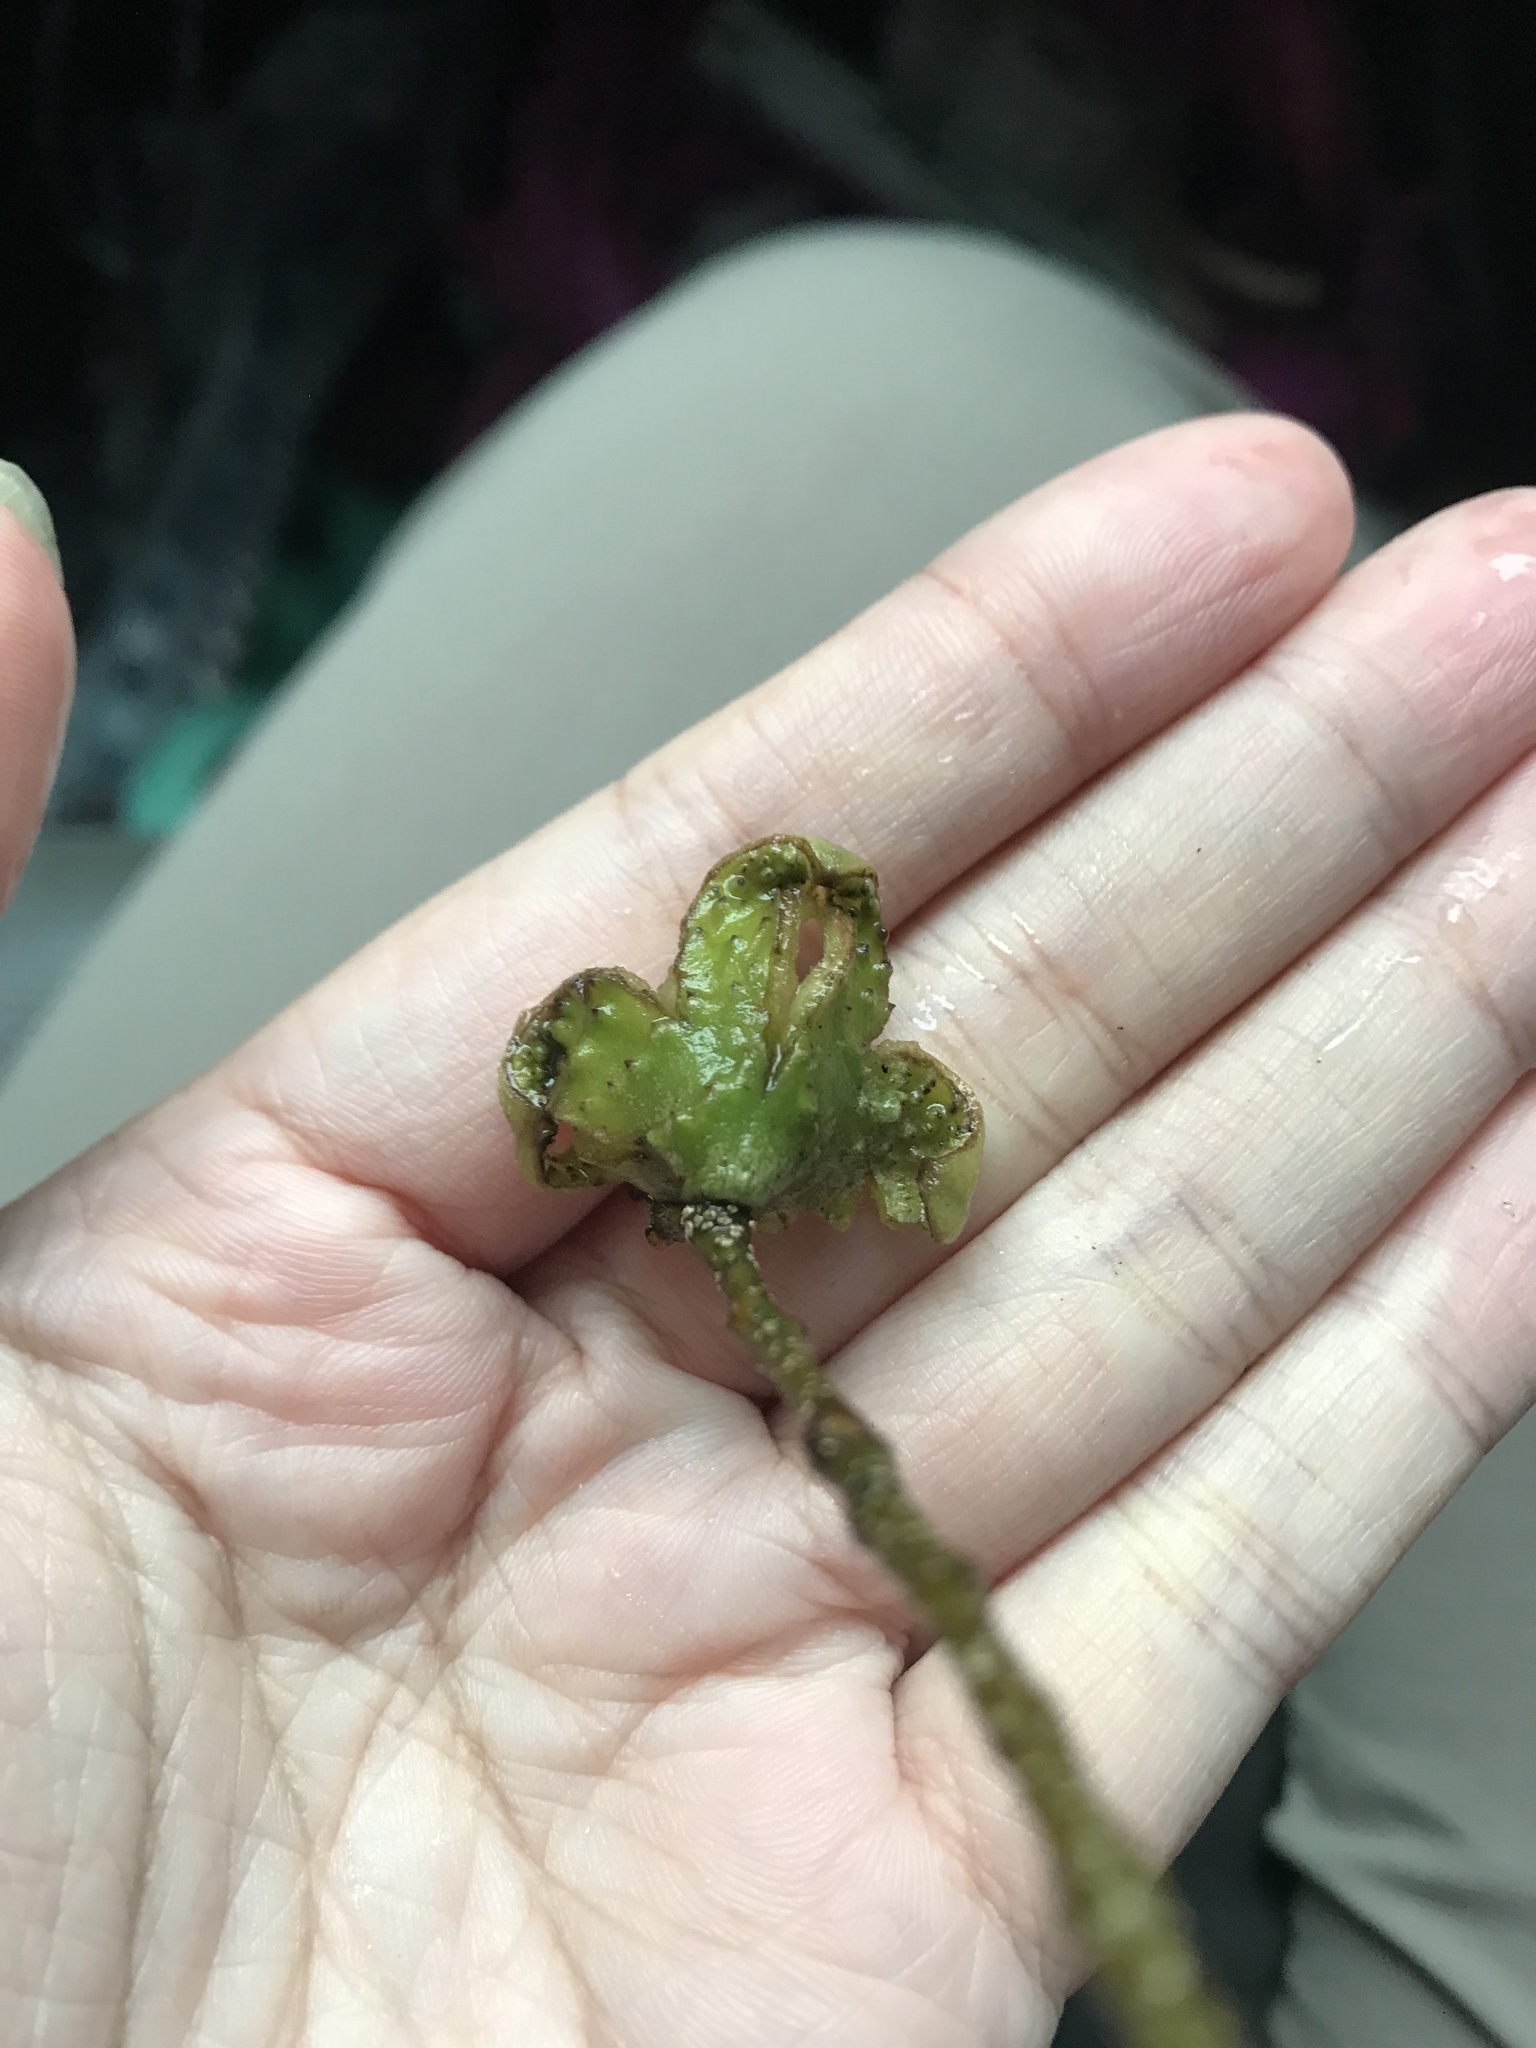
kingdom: Plantae
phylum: Tracheophyta
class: Magnoliopsida
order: Fagales
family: Fagaceae
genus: Castanopsis
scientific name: Castanopsis carlesii
